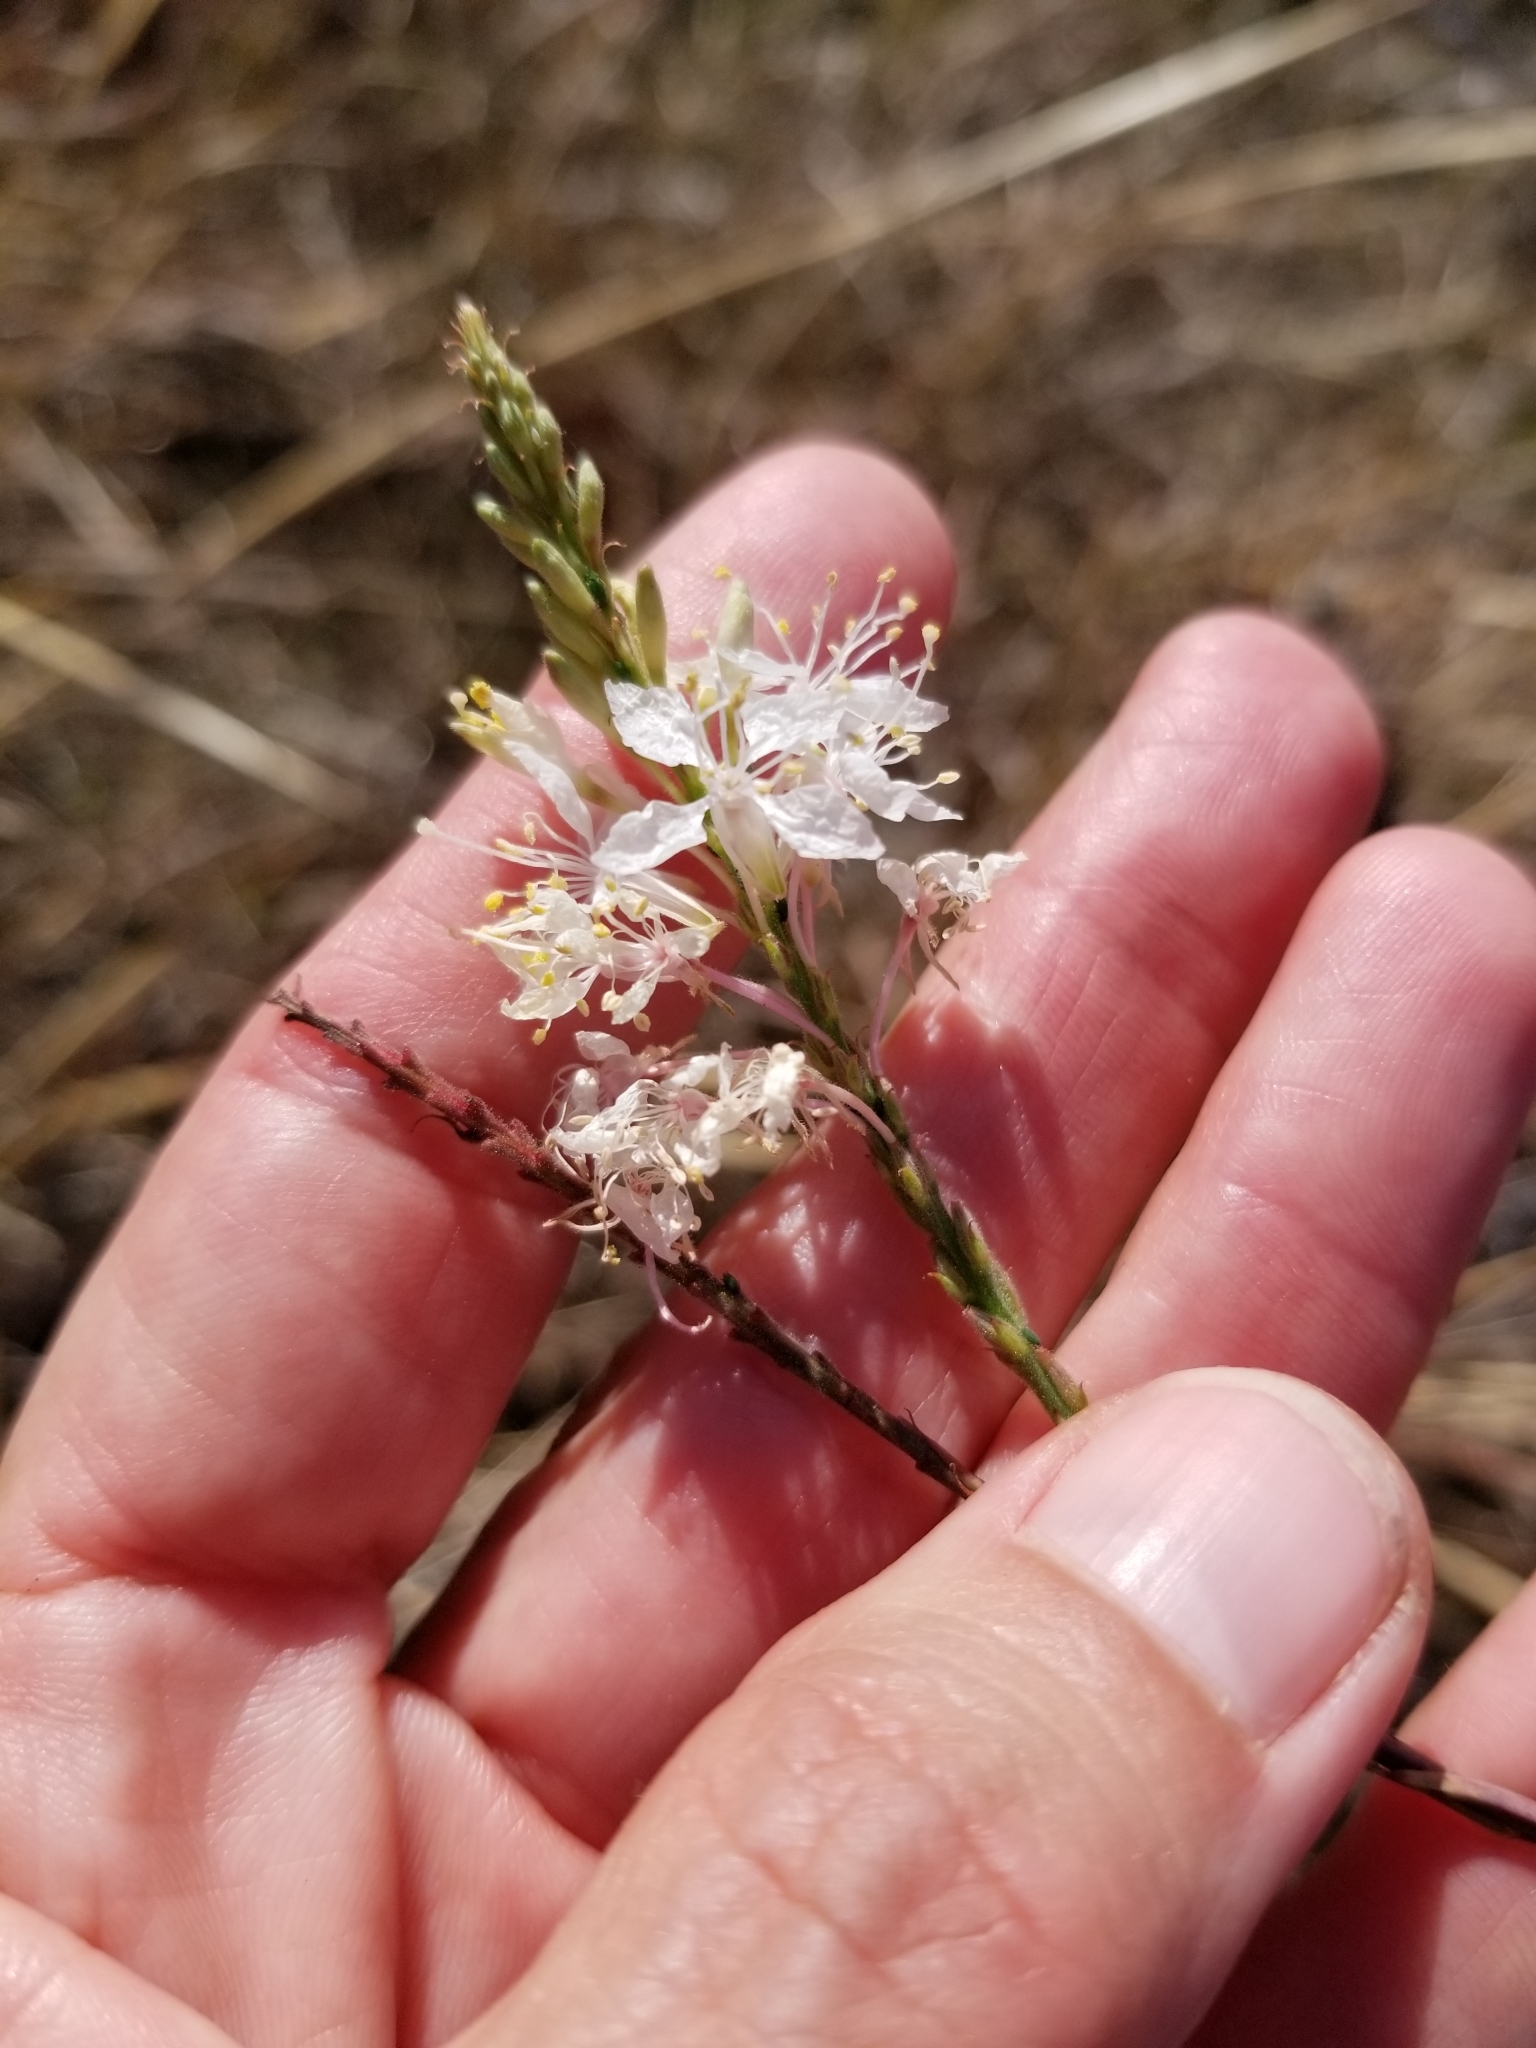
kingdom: Plantae
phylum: Tracheophyta
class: Magnoliopsida
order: Myrtales
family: Onagraceae
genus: Oenothera
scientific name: Oenothera glaucifolia
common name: False gaura
